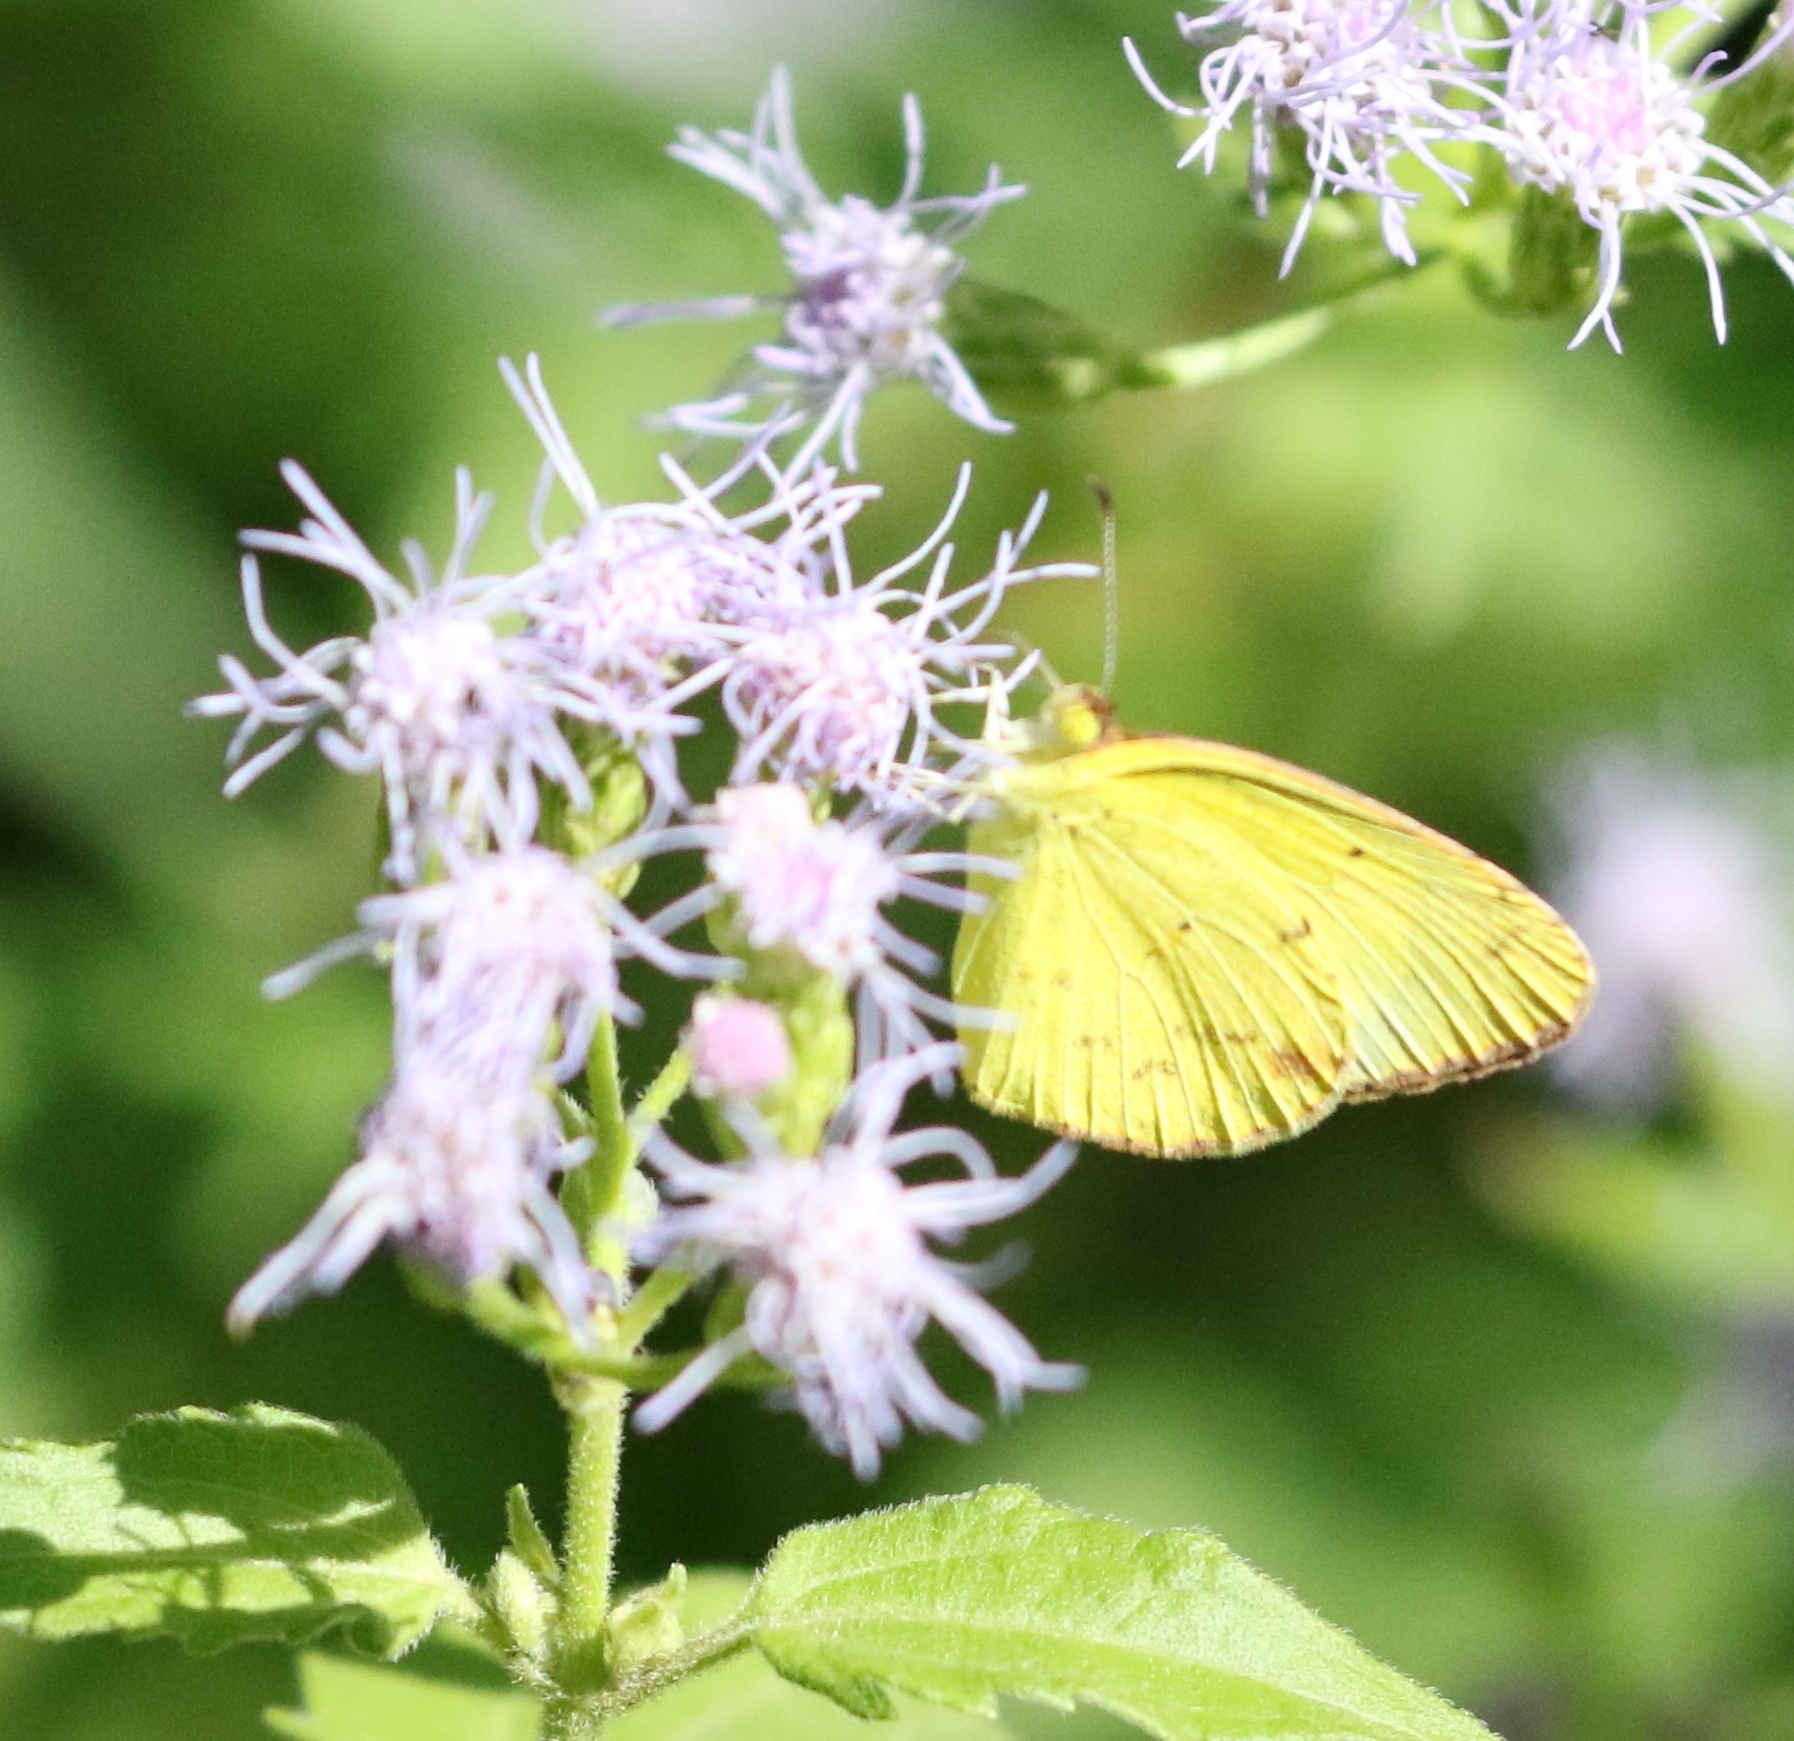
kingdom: Animalia
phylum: Arthropoda
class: Insecta
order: Lepidoptera
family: Pieridae
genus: Pyrisitia
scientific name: Pyrisitia lisa
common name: Little yellow
